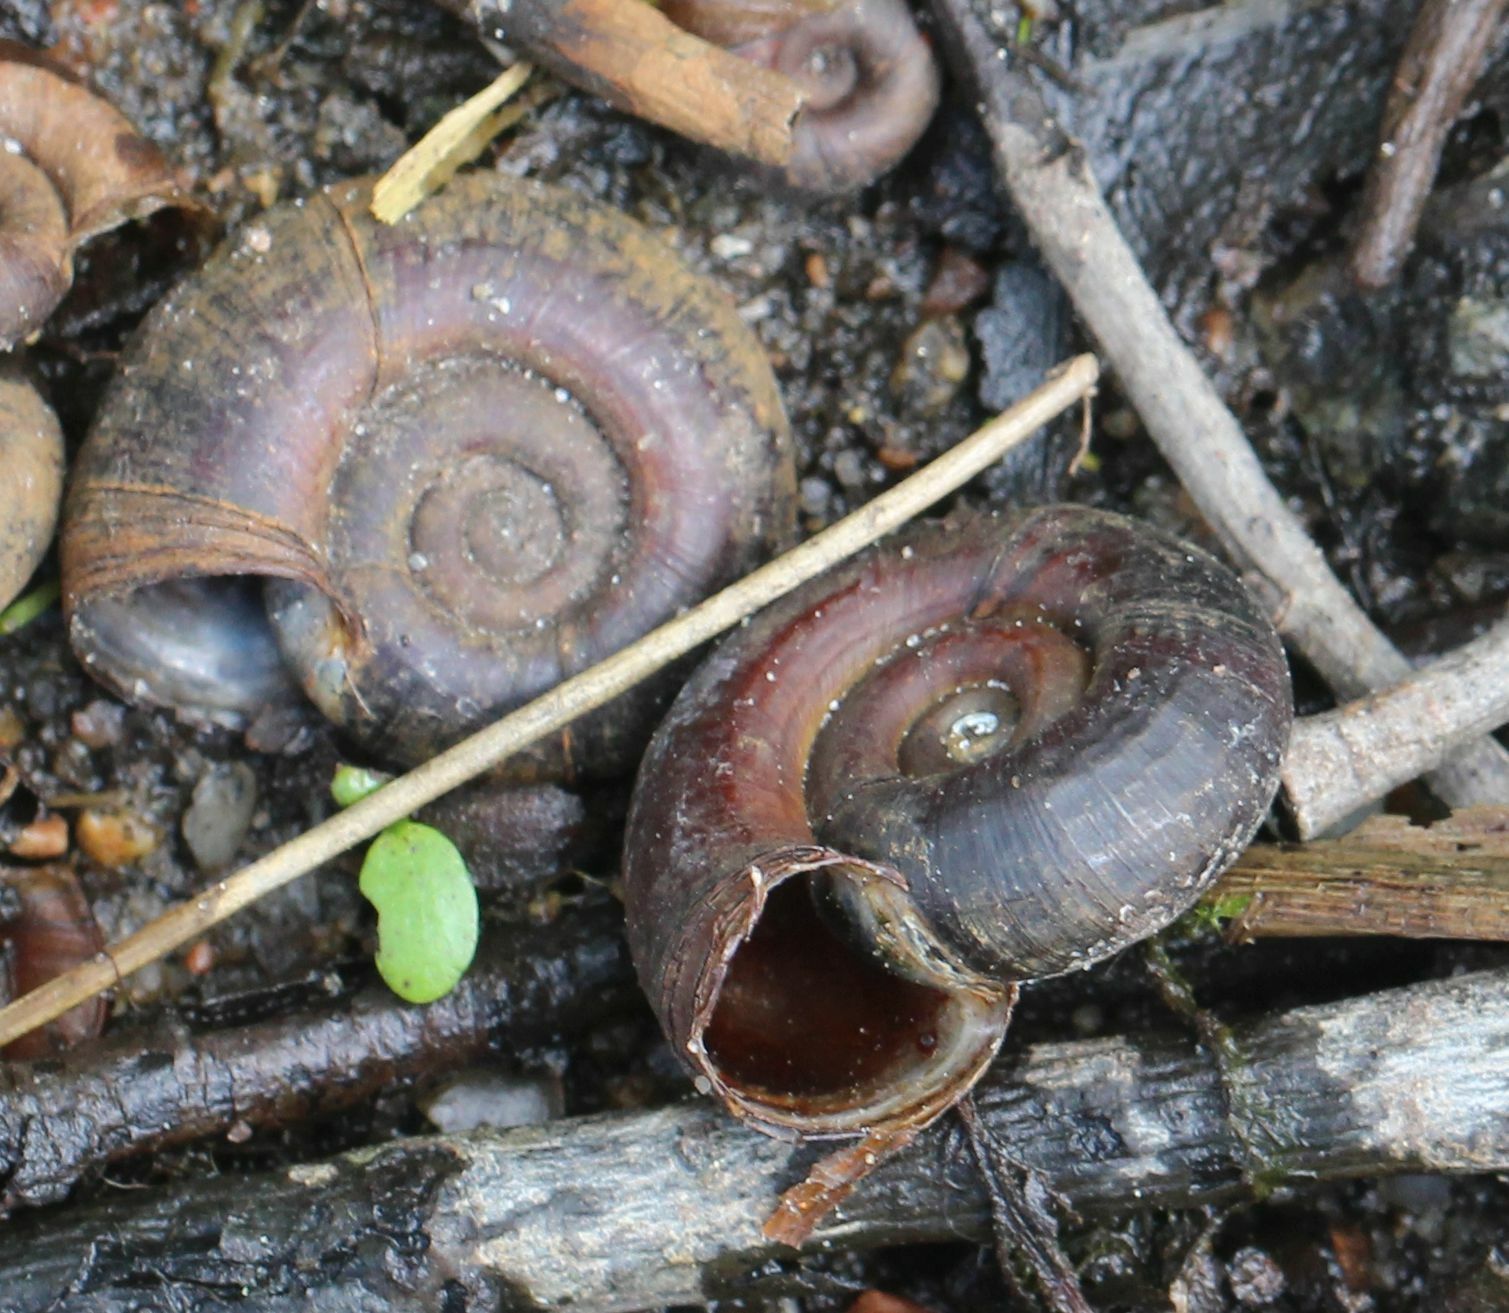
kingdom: Animalia
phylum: Mollusca
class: Gastropoda
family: Planorbidae
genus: Planorbarius
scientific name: Planorbarius corneus
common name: Great ramshorn
